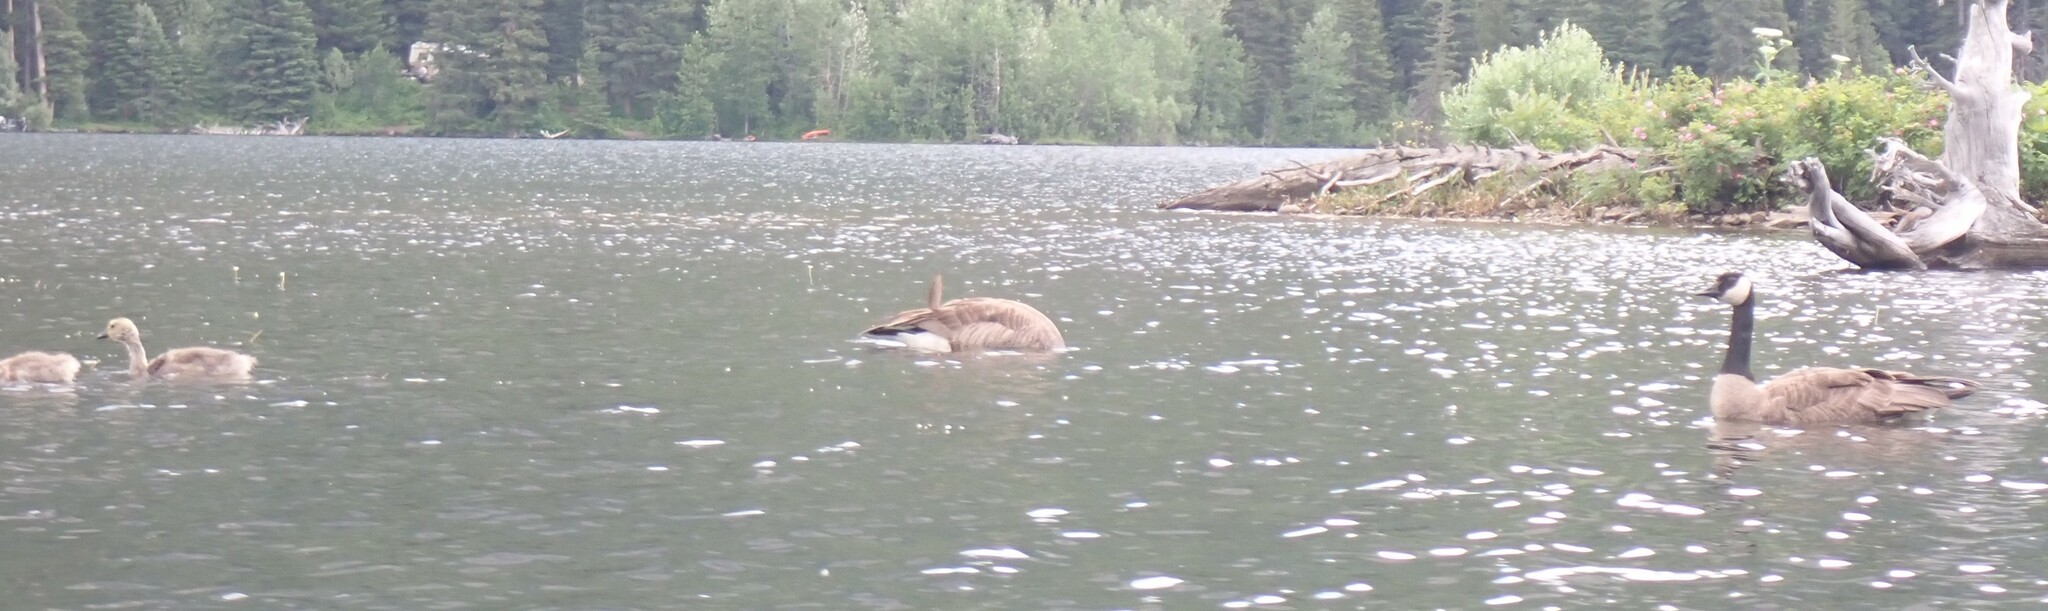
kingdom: Animalia
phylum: Chordata
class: Aves
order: Anseriformes
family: Anatidae
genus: Branta
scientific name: Branta canadensis
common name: Canada goose
